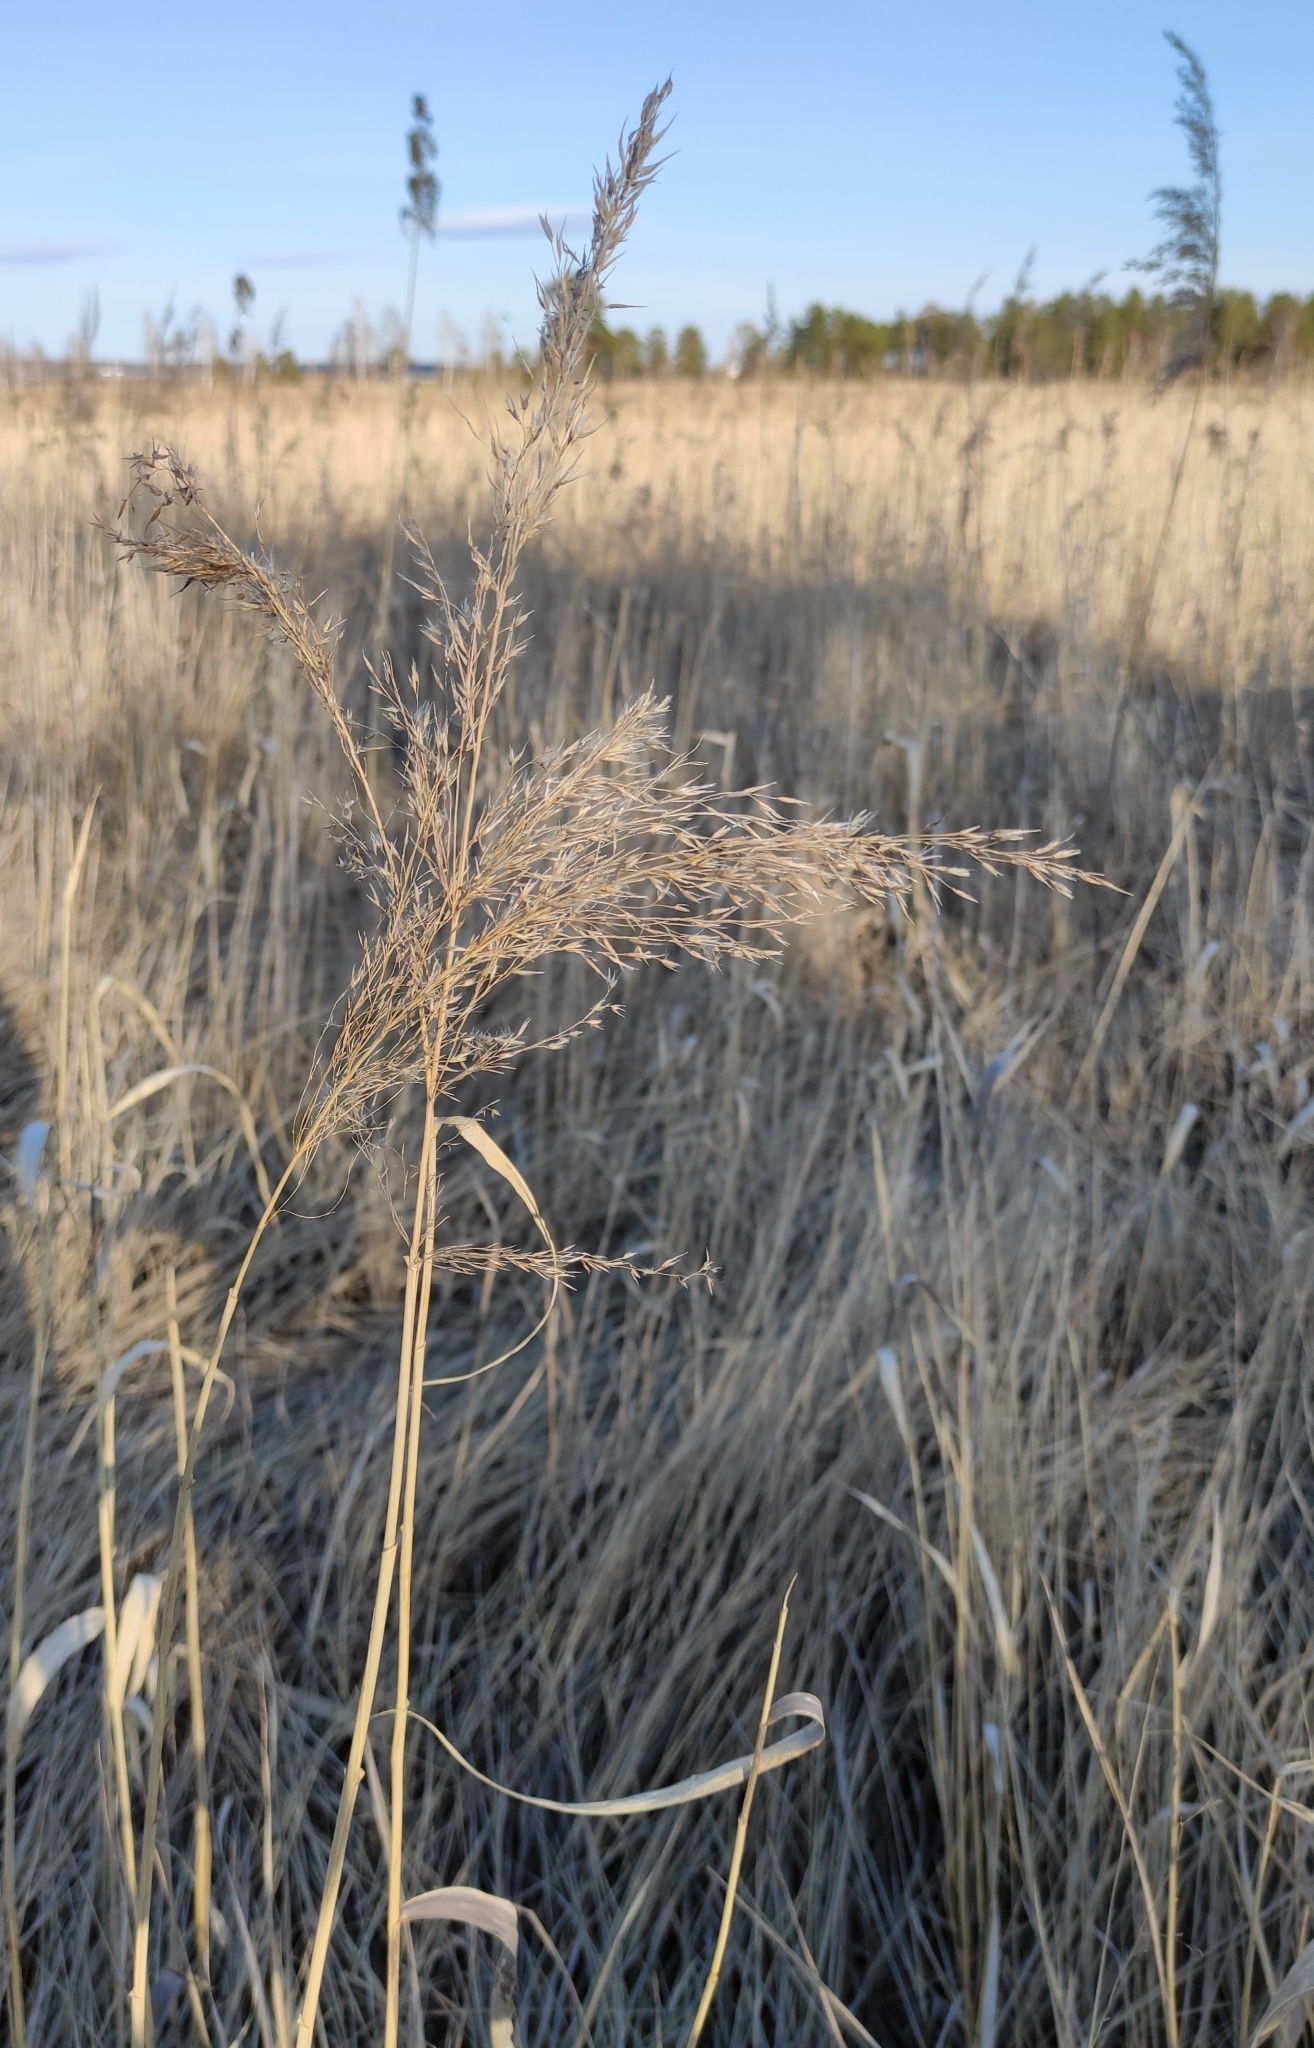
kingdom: Plantae
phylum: Tracheophyta
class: Liliopsida
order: Poales
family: Poaceae
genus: Phragmites
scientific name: Phragmites australis
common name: Common reed
